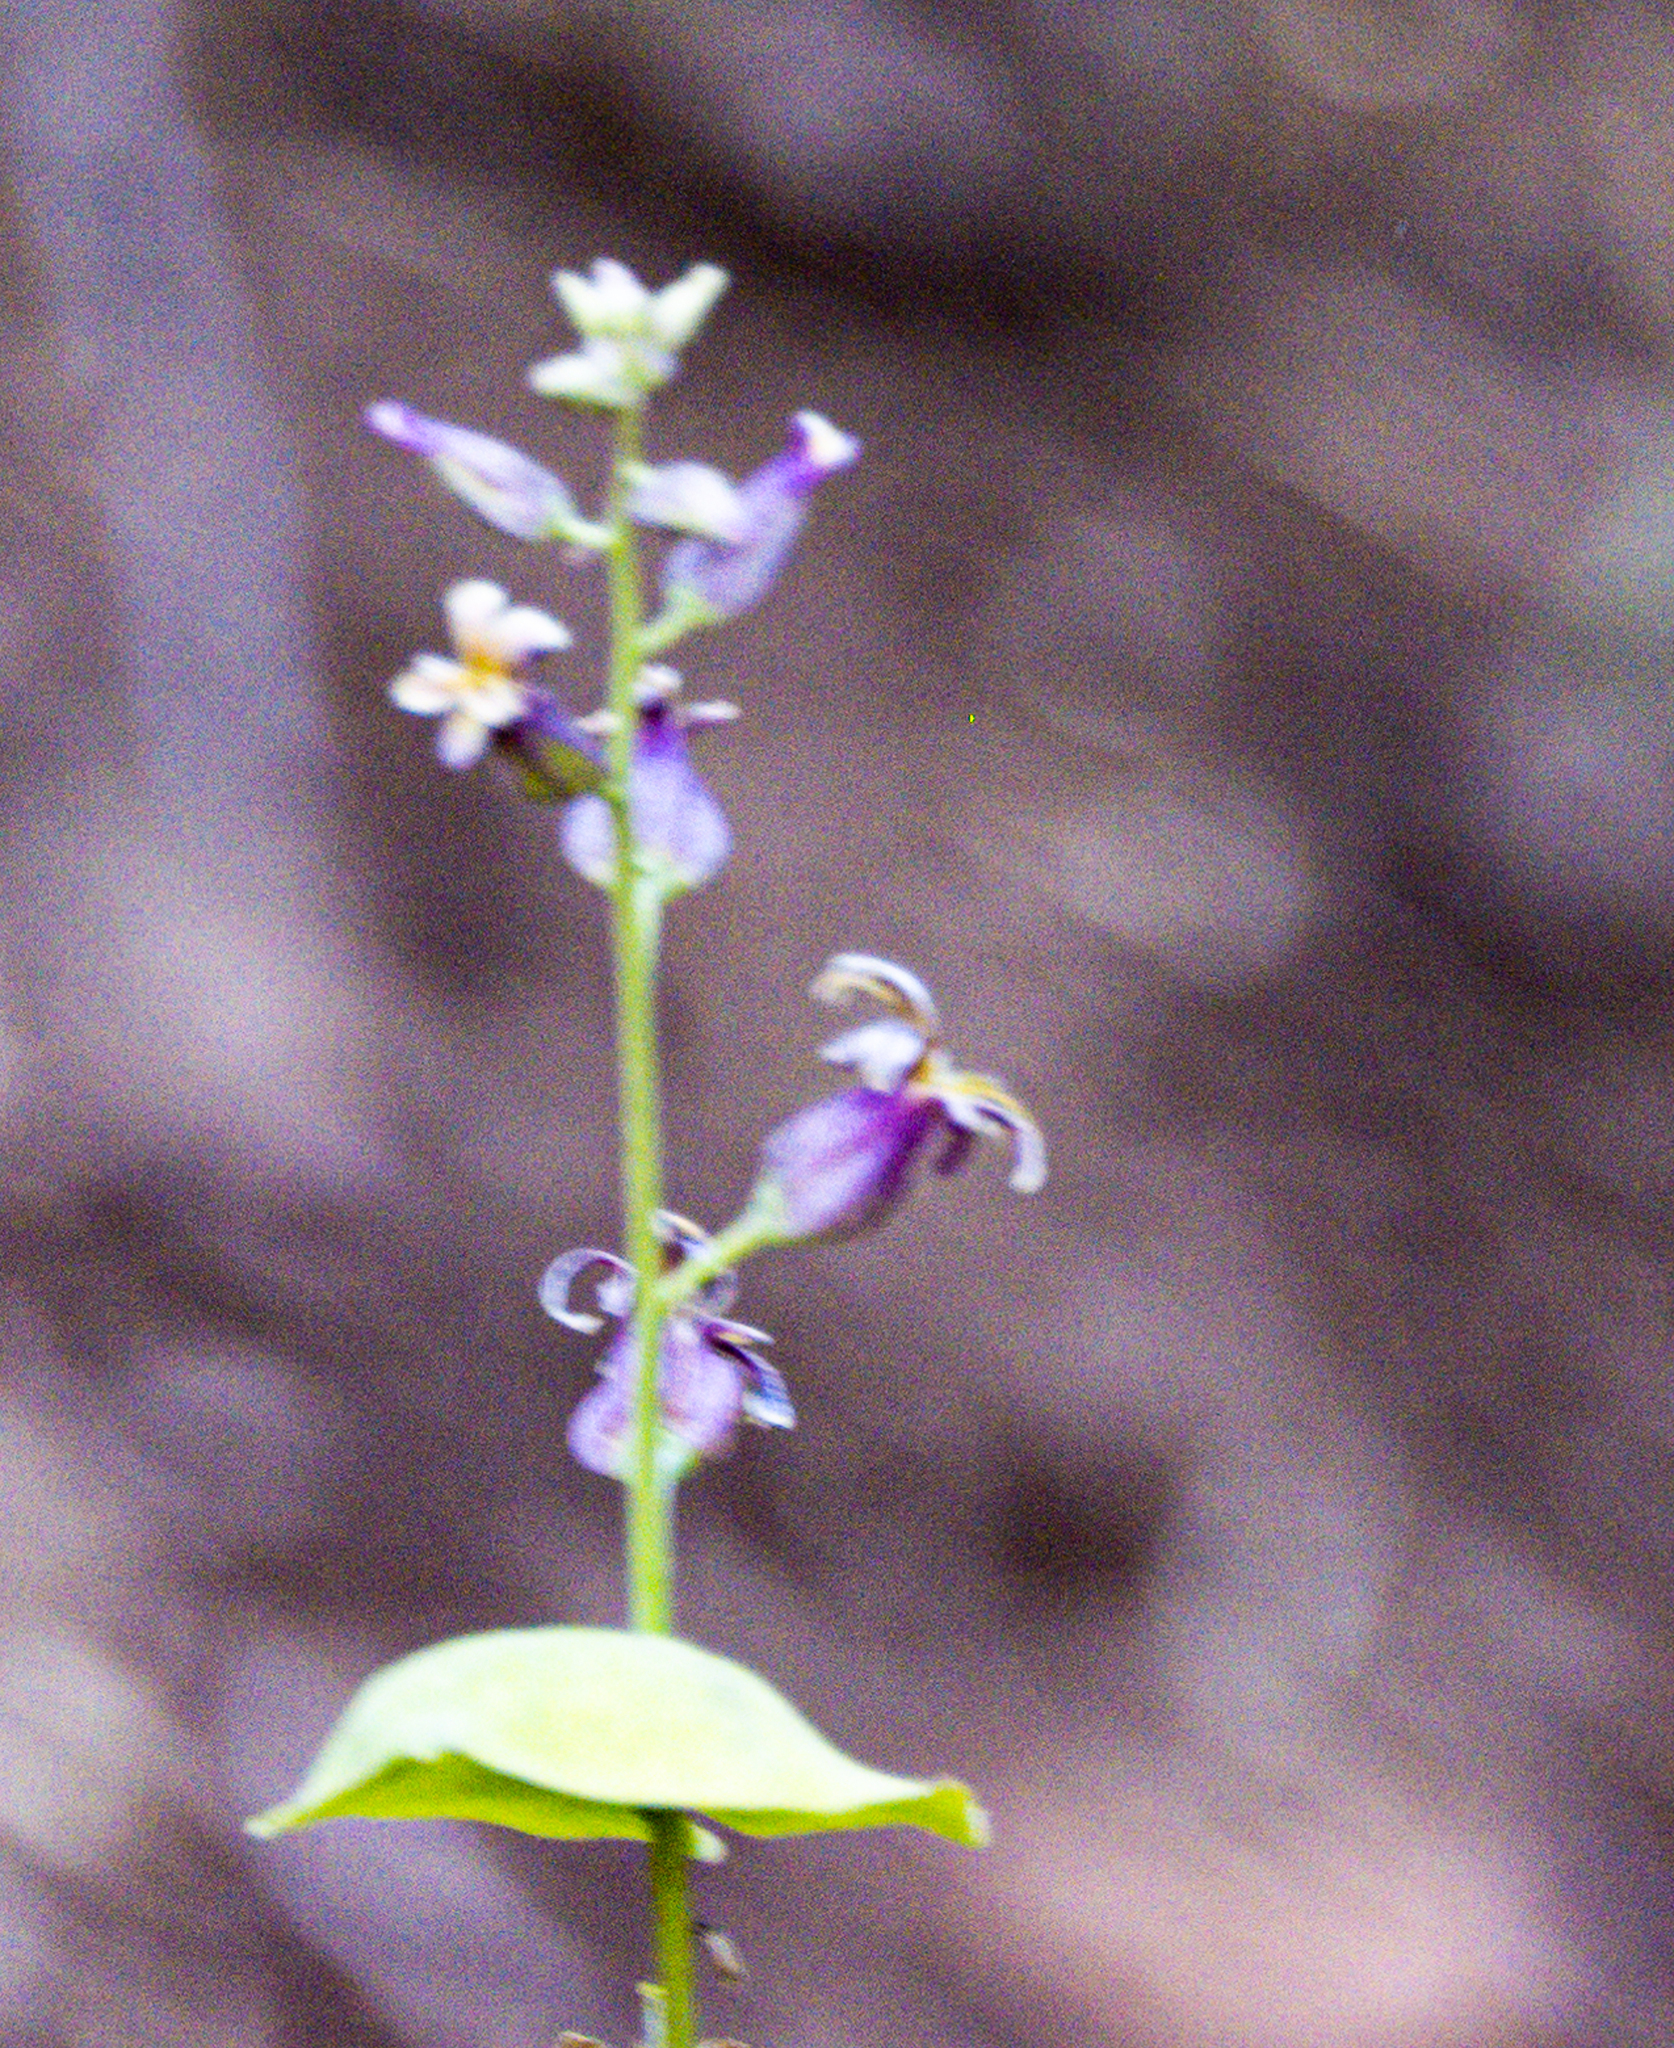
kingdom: Plantae
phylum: Tracheophyta
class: Magnoliopsida
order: Brassicales
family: Brassicaceae
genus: Streptanthus
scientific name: Streptanthus tortuosus
